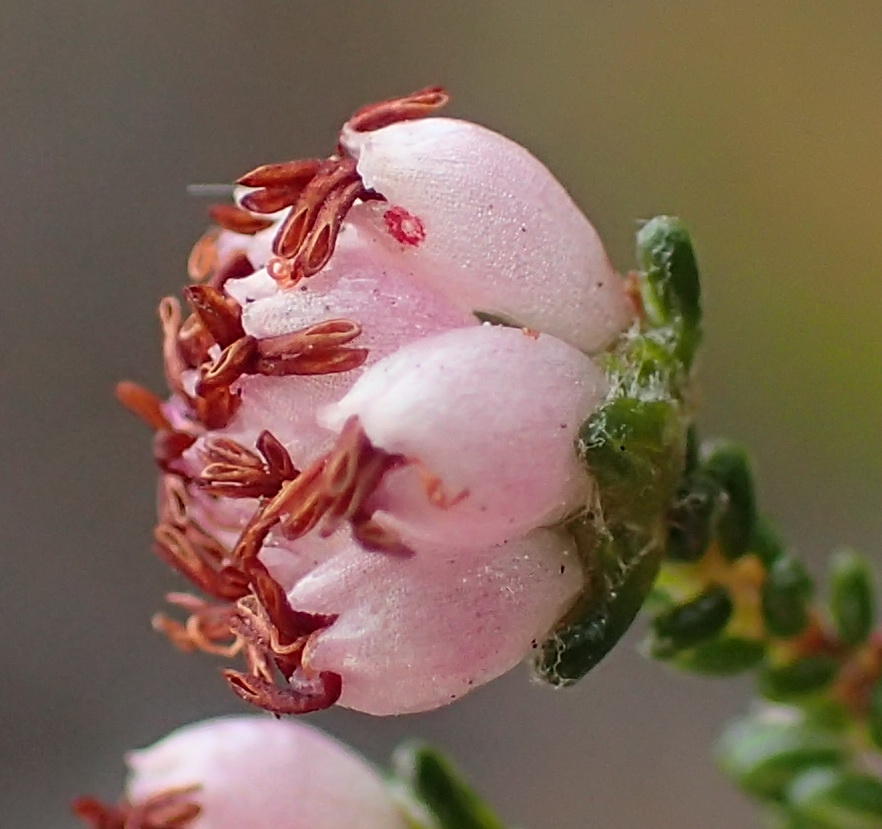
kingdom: Plantae
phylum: Tracheophyta
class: Magnoliopsida
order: Ericales
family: Ericaceae
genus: Erica
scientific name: Erica viscosissima
